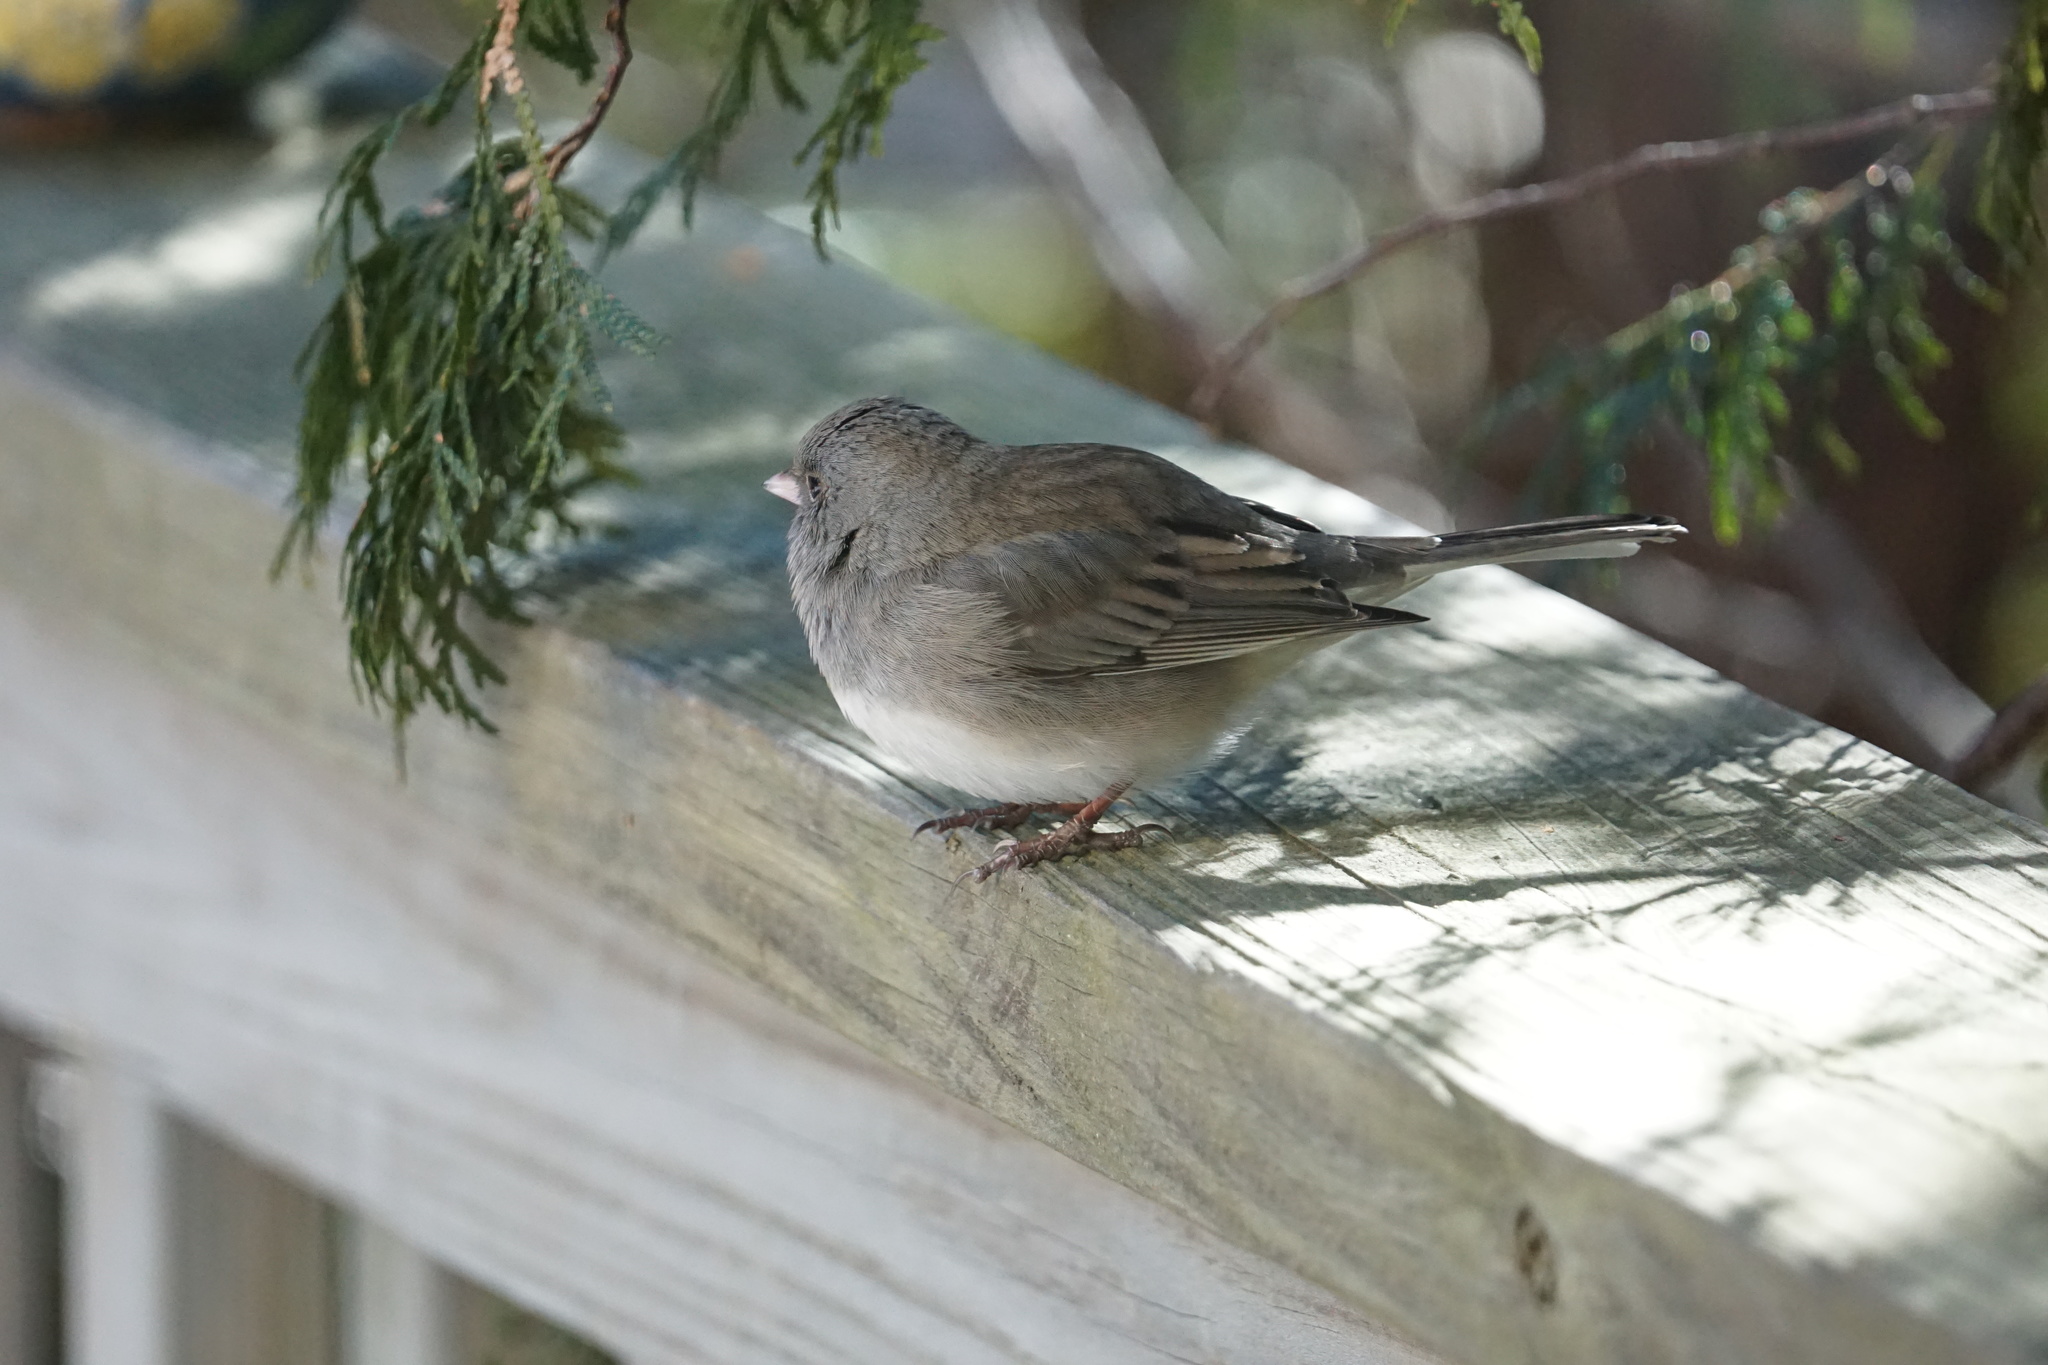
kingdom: Animalia
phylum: Chordata
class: Aves
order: Passeriformes
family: Passerellidae
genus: Junco
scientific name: Junco hyemalis
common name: Dark-eyed junco
